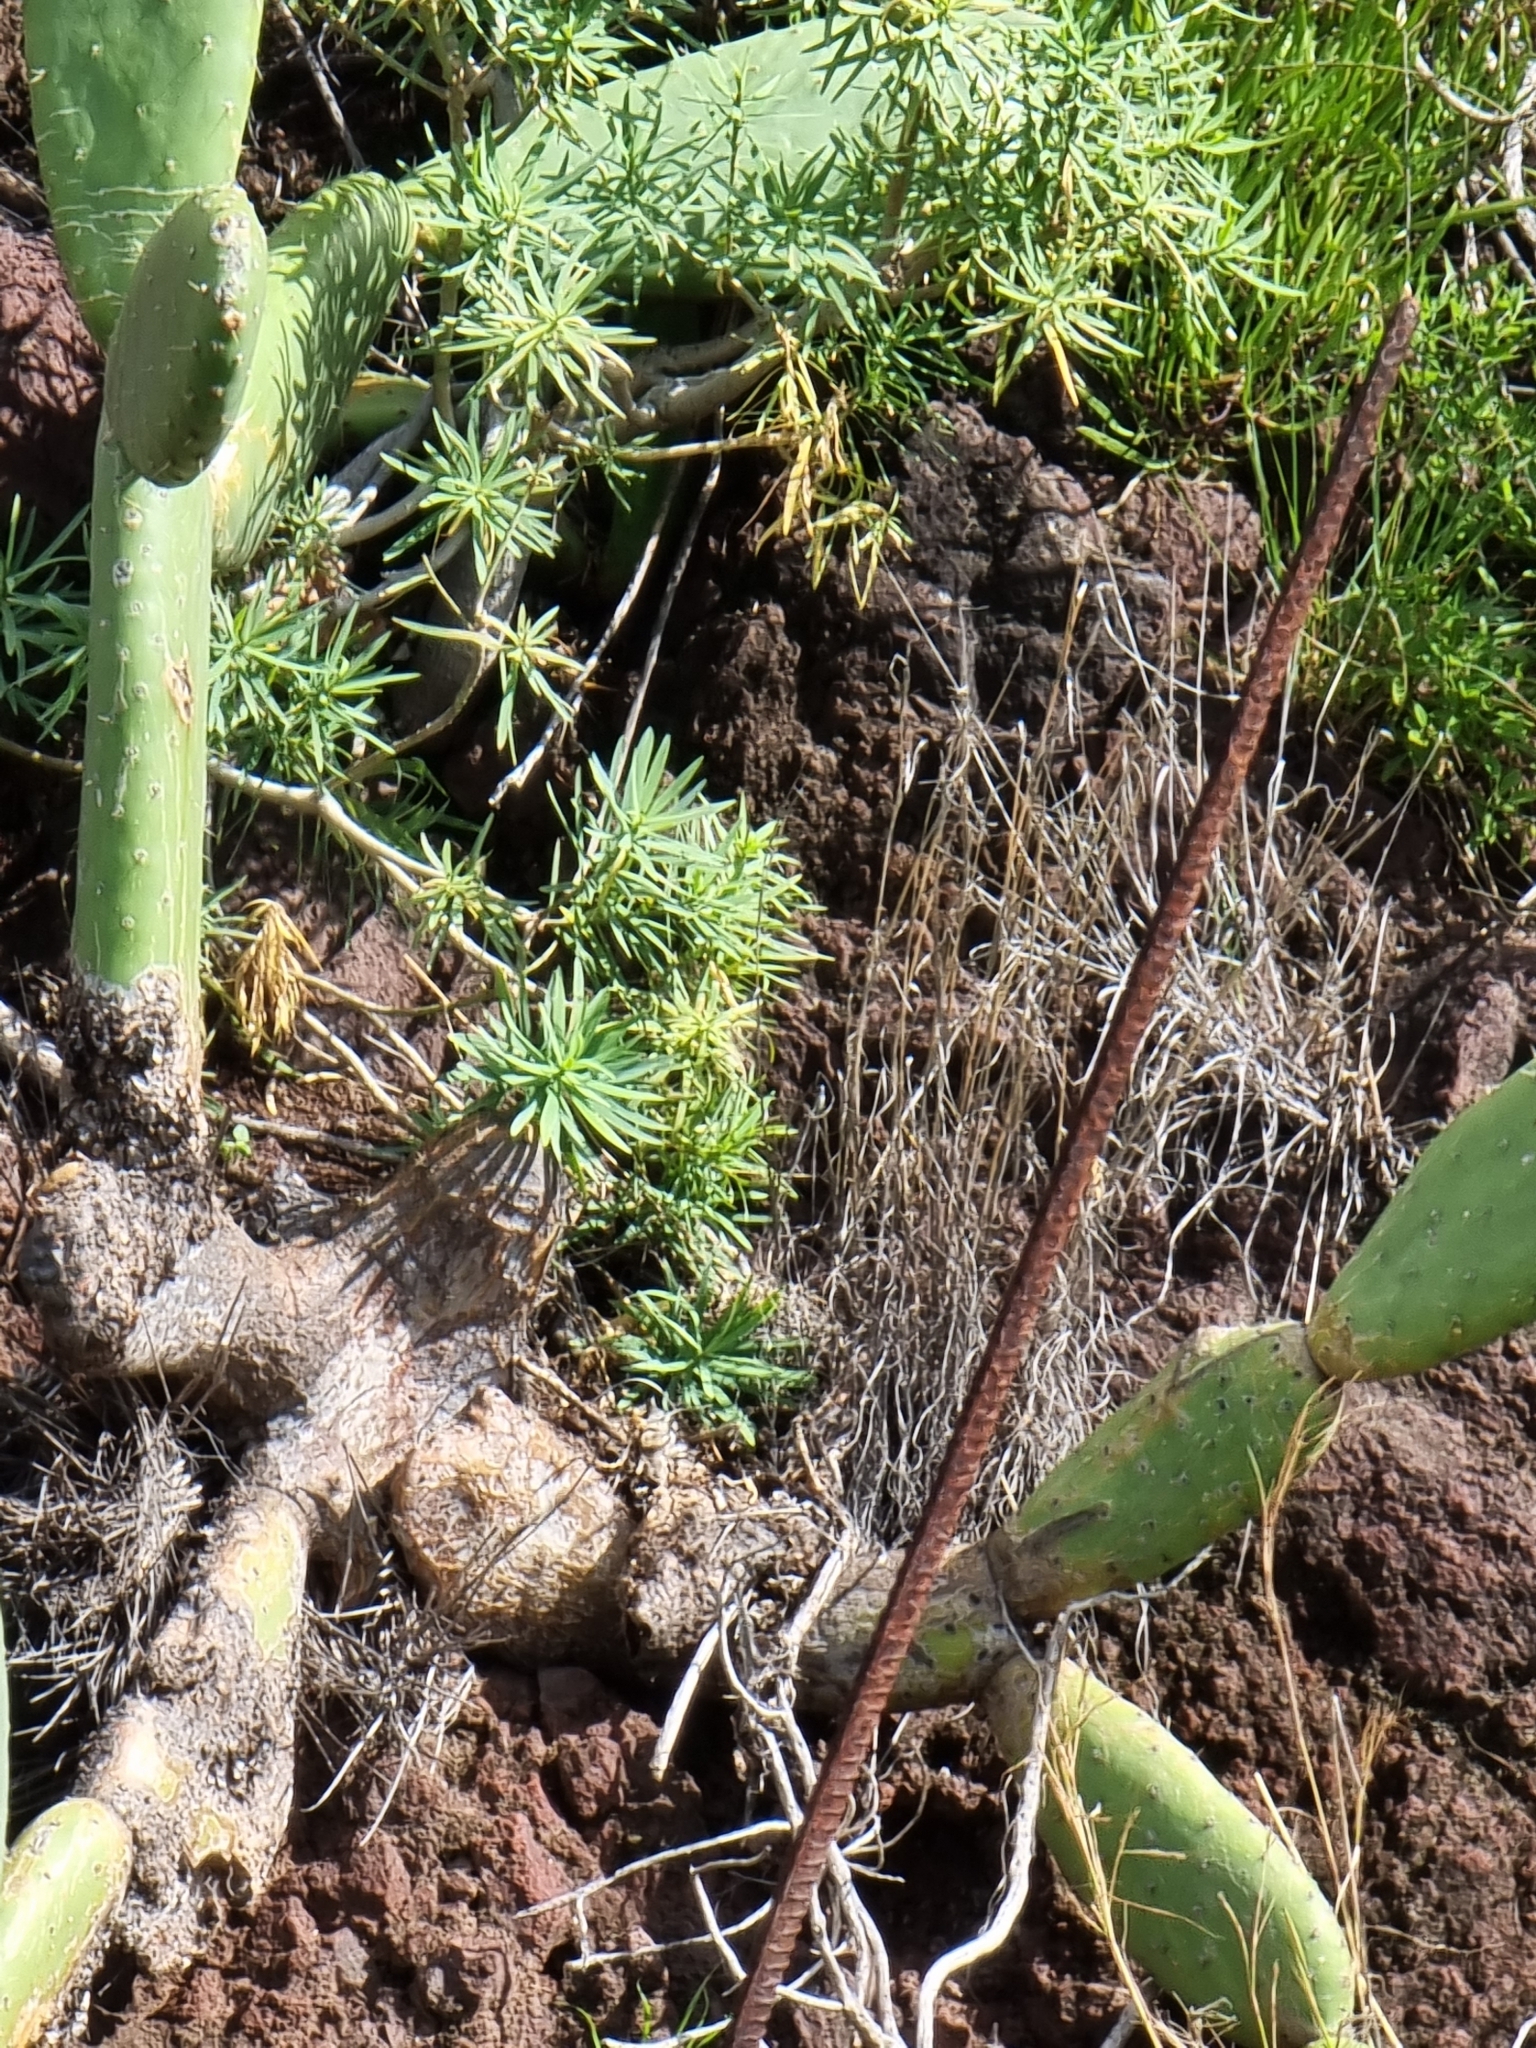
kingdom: Plantae
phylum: Tracheophyta
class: Magnoliopsida
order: Malpighiales
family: Euphorbiaceae
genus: Euphorbia
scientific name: Euphorbia piscatoria
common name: Fish-stunning spurge
